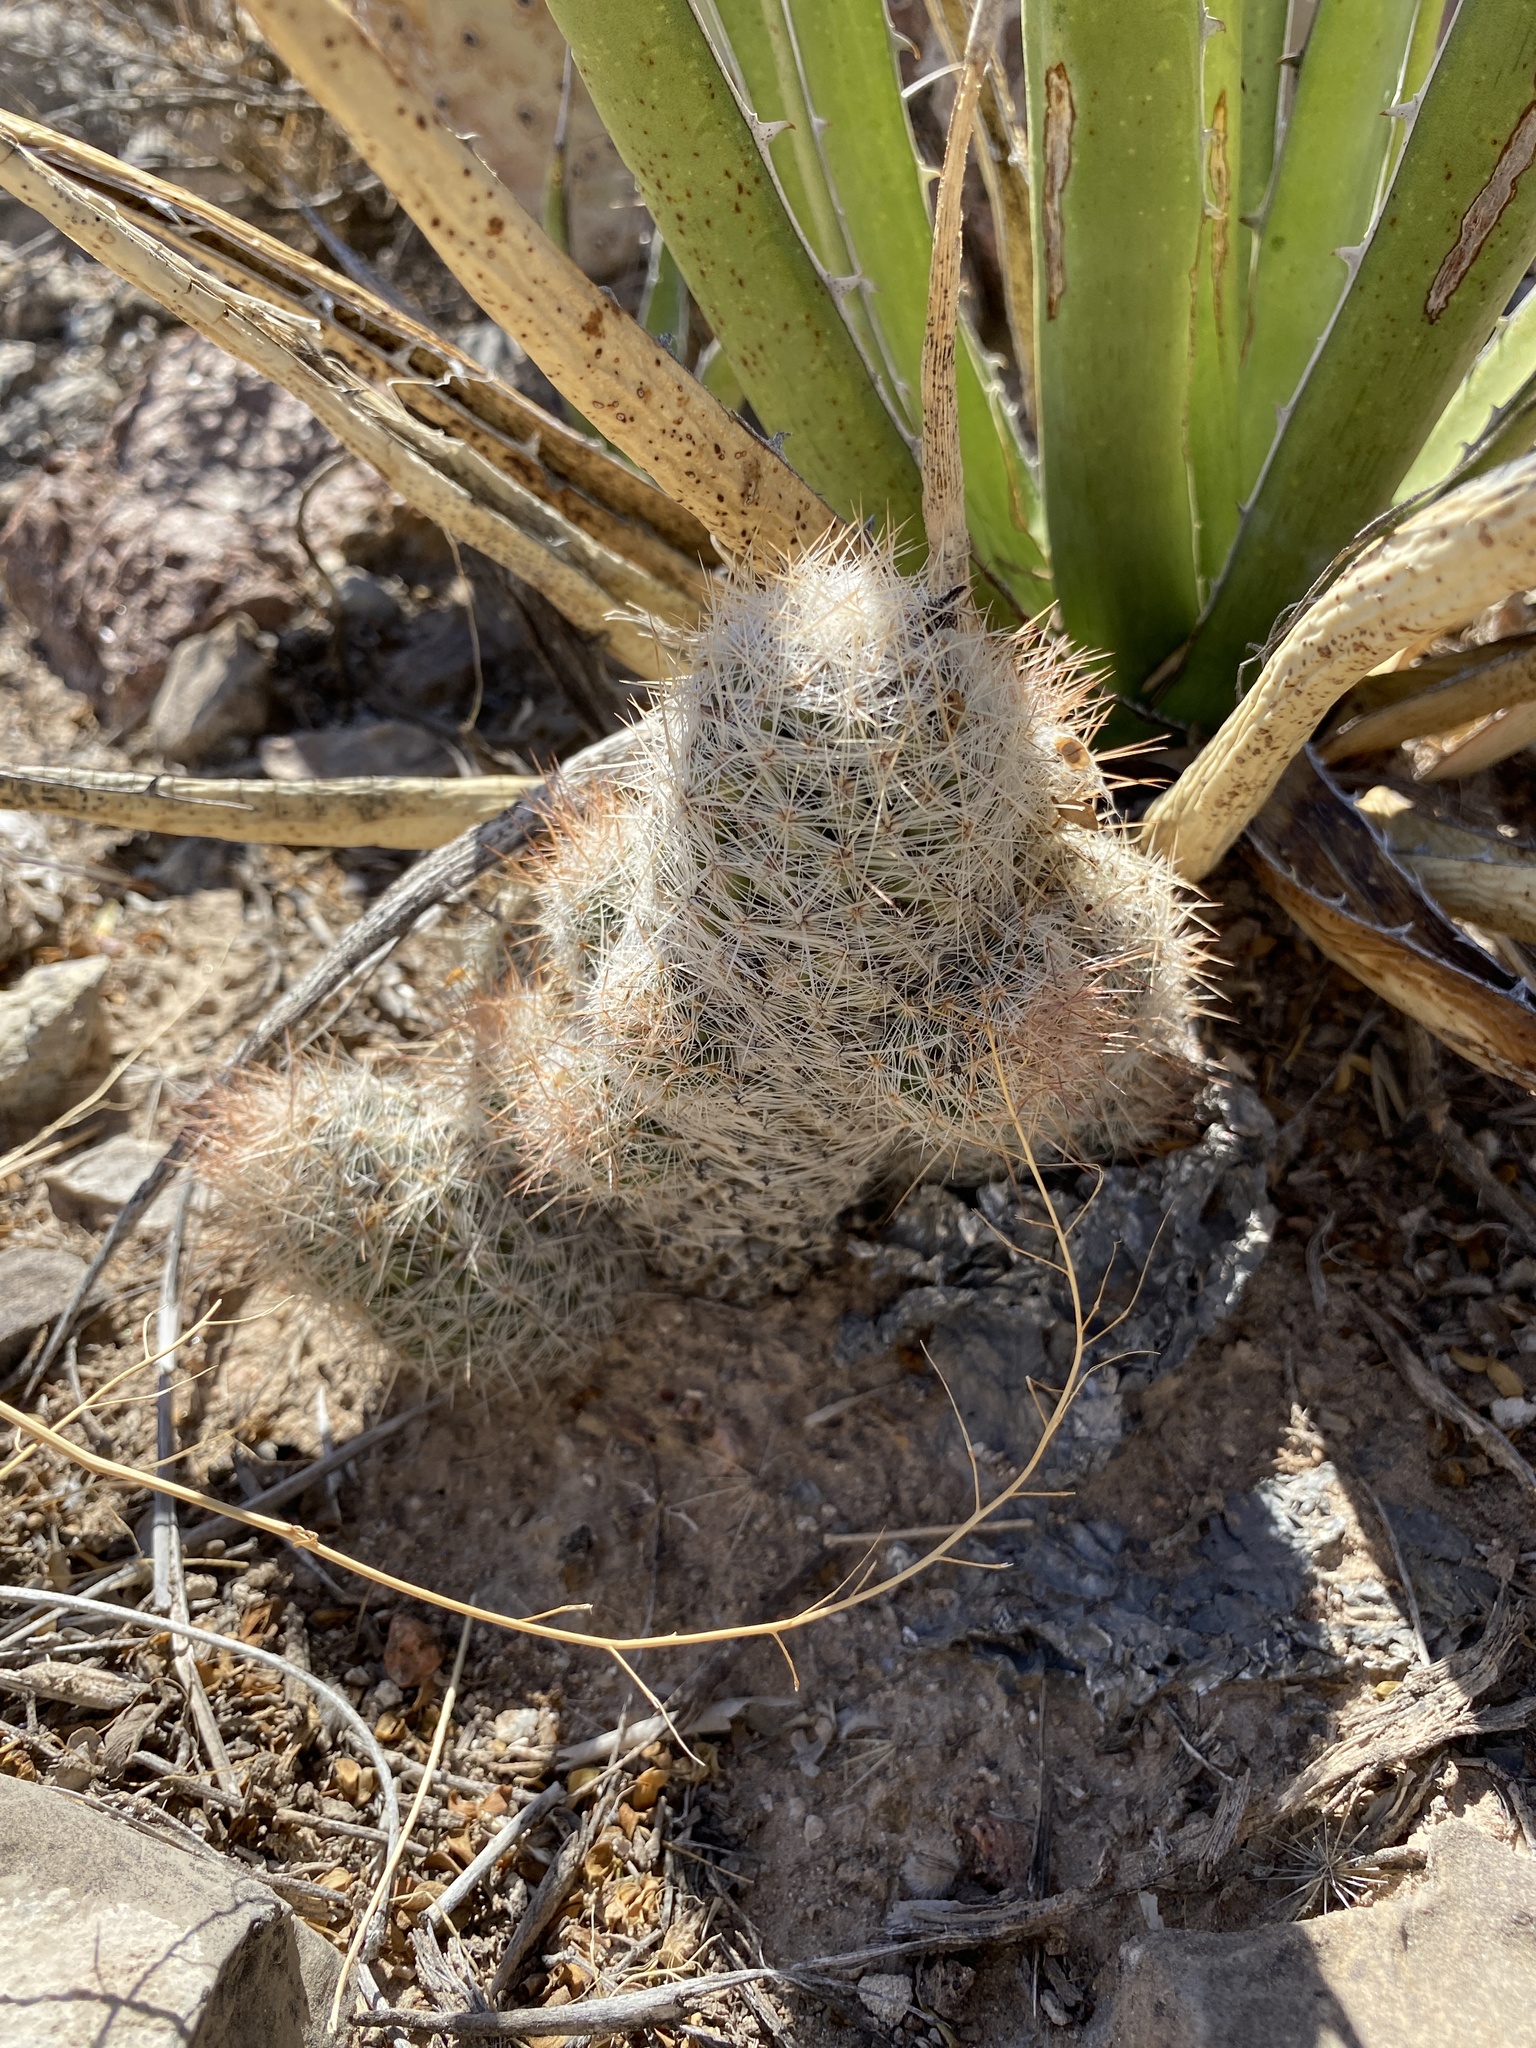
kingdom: Plantae
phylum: Tracheophyta
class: Magnoliopsida
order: Caryophyllales
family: Cactaceae
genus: Pelecyphora
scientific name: Pelecyphora tuberculosa
